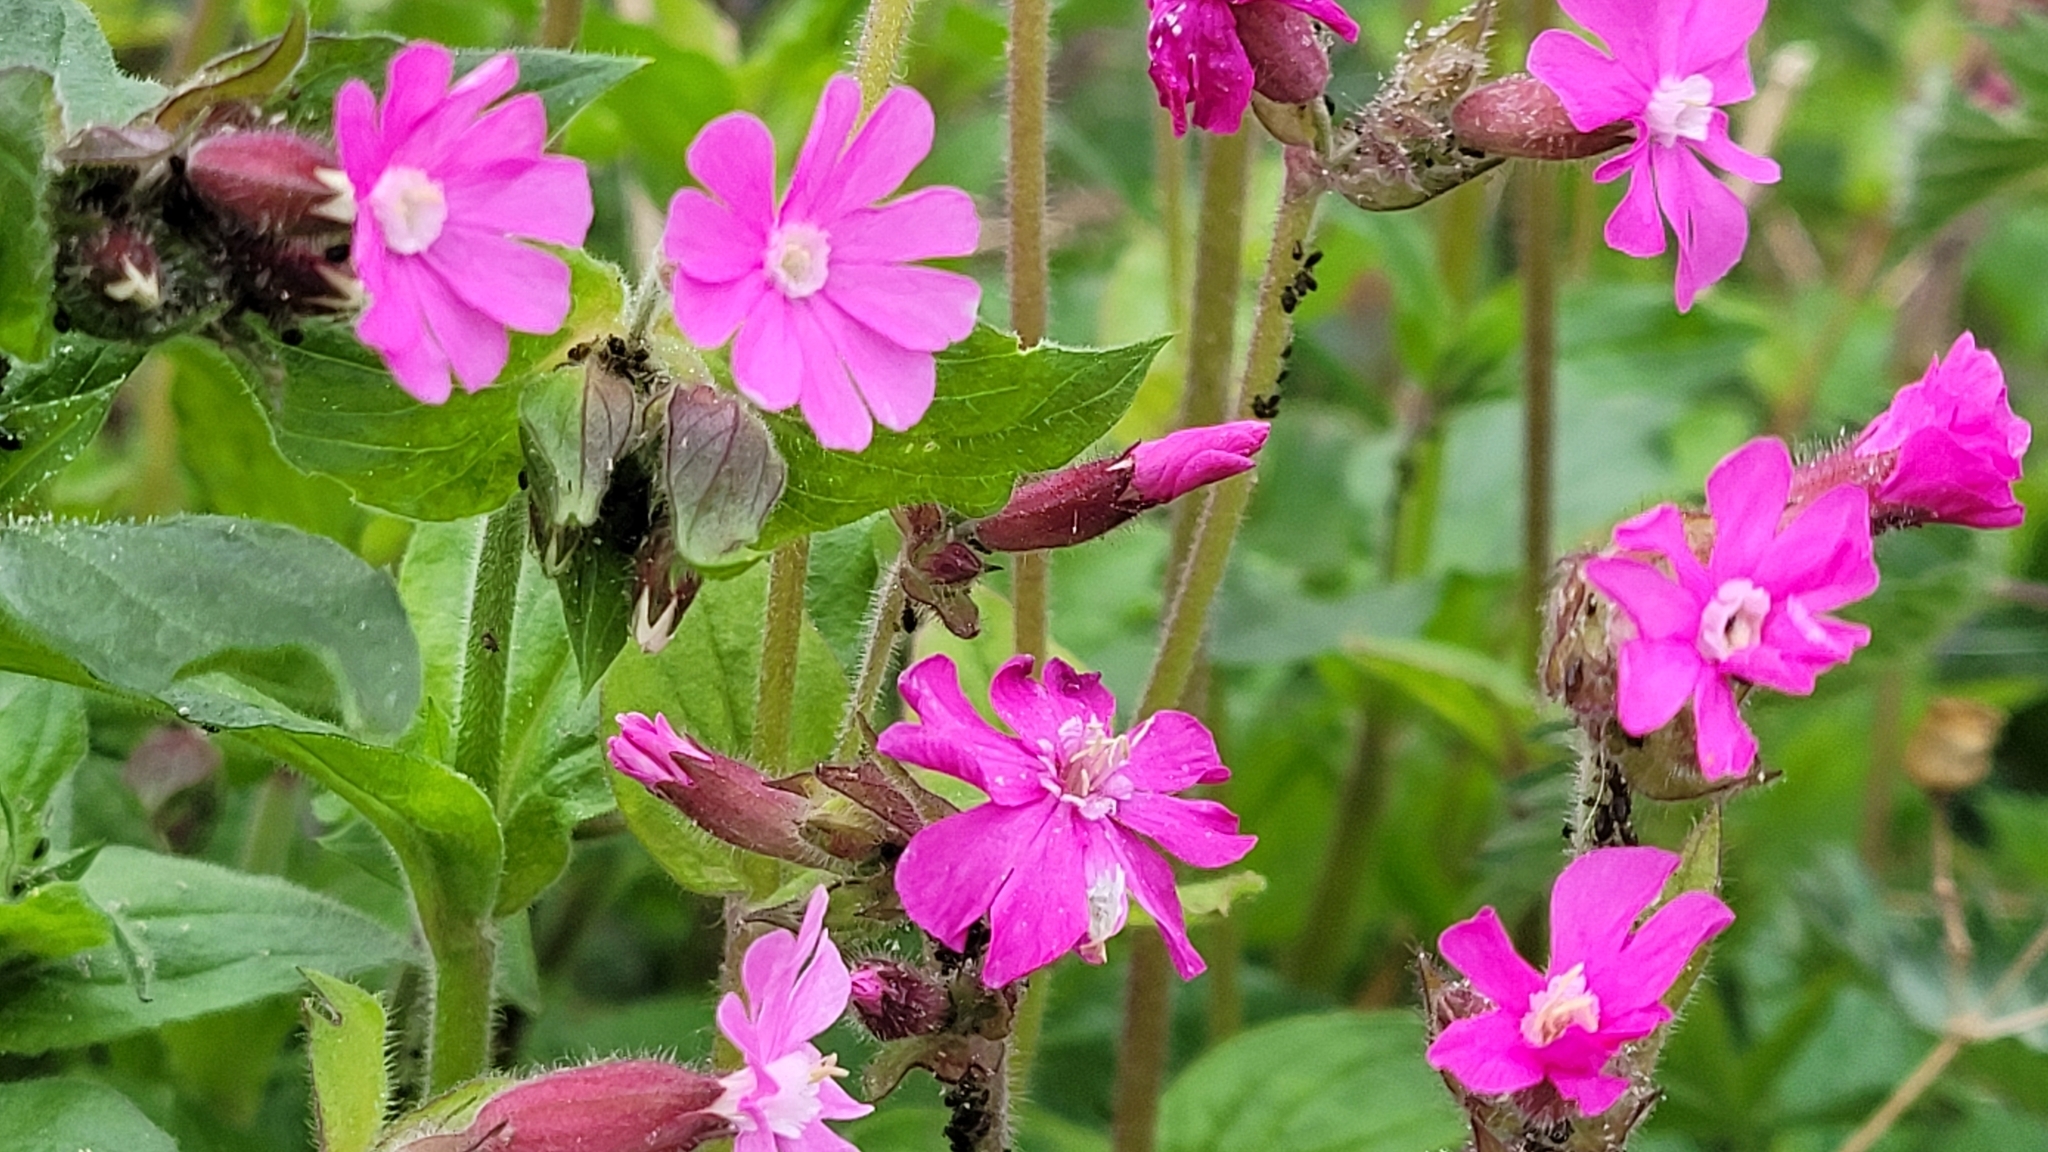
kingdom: Plantae
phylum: Tracheophyta
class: Magnoliopsida
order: Caryophyllales
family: Caryophyllaceae
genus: Silene
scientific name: Silene dioica
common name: Red campion
